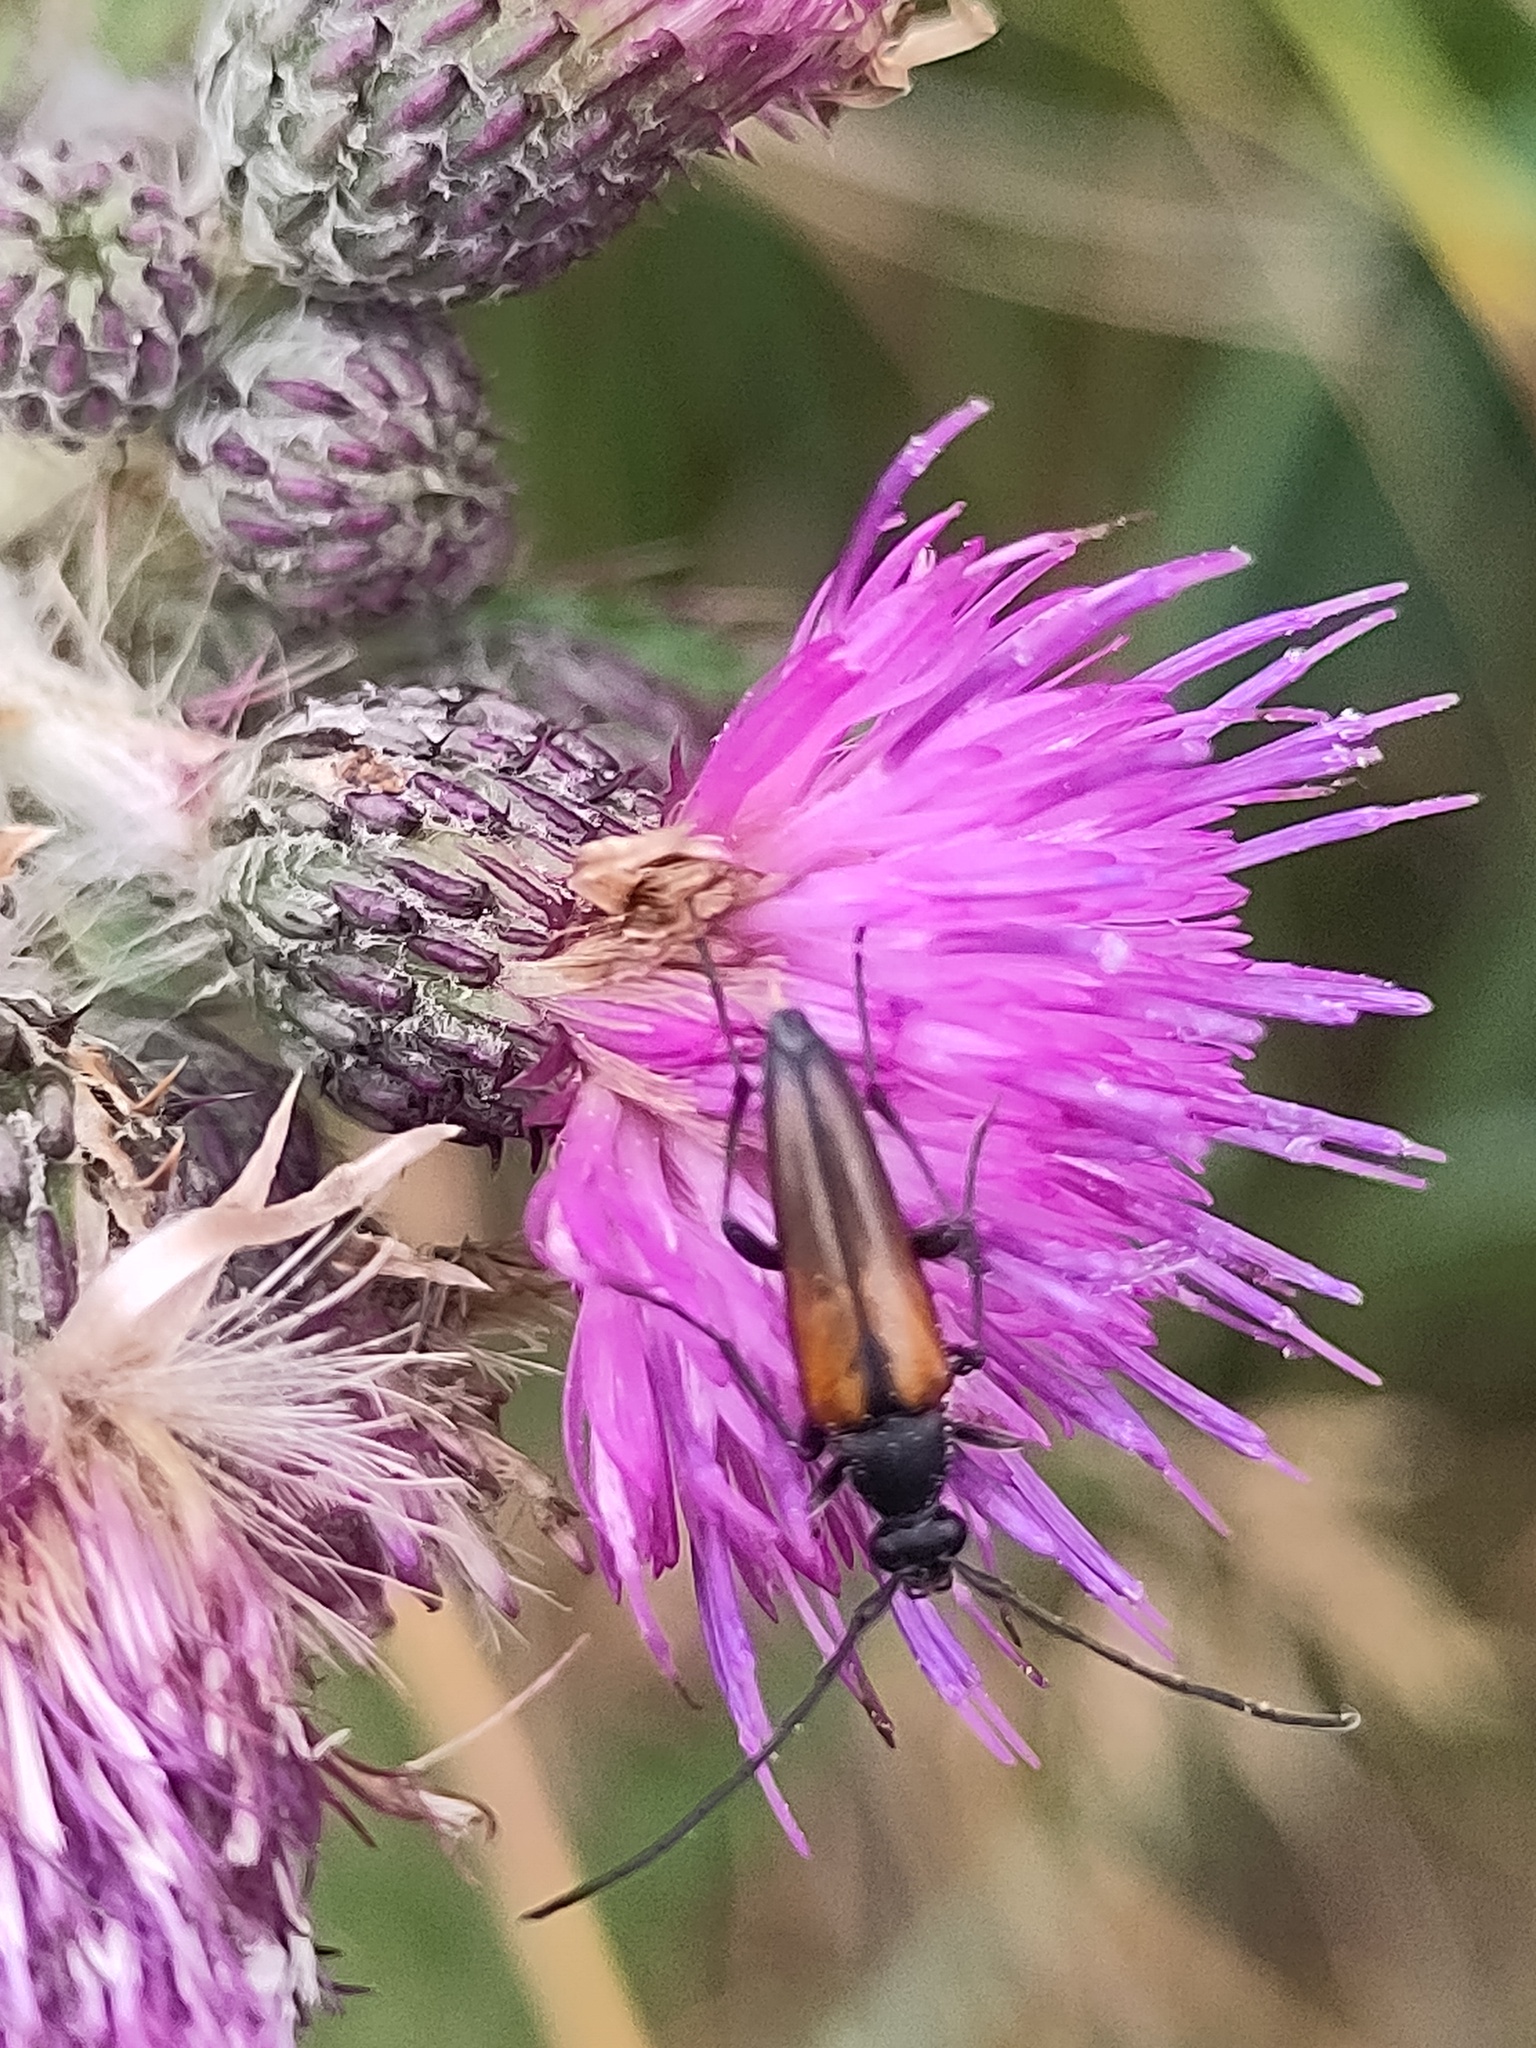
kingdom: Animalia
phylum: Arthropoda
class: Insecta
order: Coleoptera
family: Cerambycidae
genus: Stenurella
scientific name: Stenurella melanura
